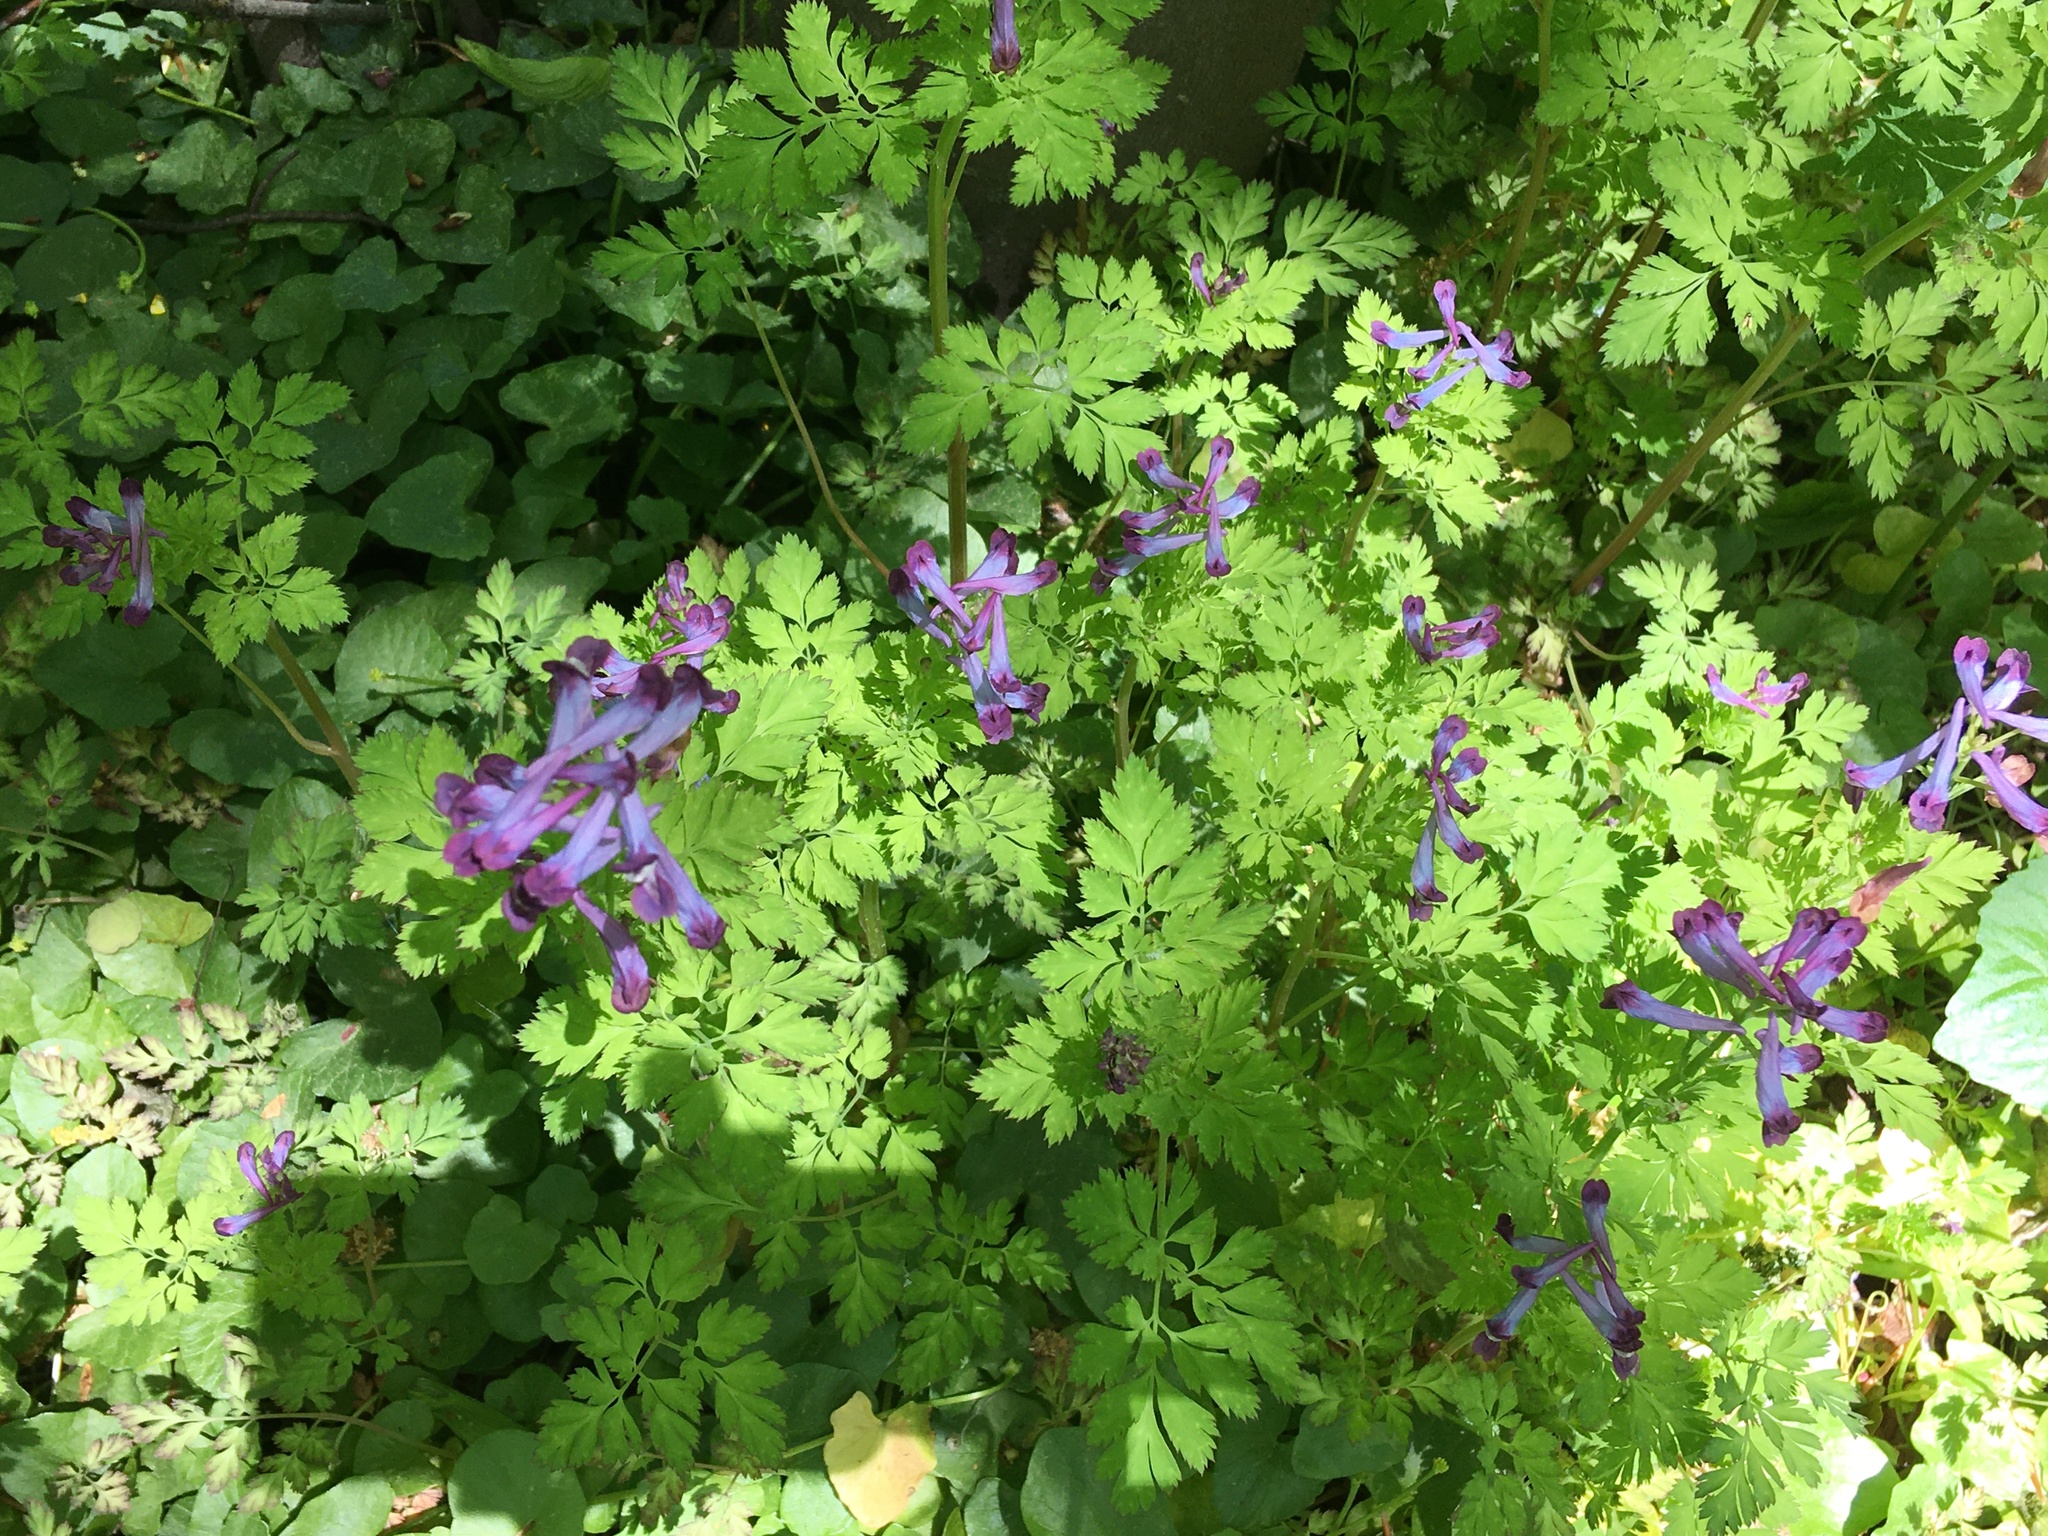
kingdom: Plantae
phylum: Tracheophyta
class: Magnoliopsida
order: Ranunculales
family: Papaveraceae
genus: Corydalis
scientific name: Corydalis incisa
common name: Incised fumewort
